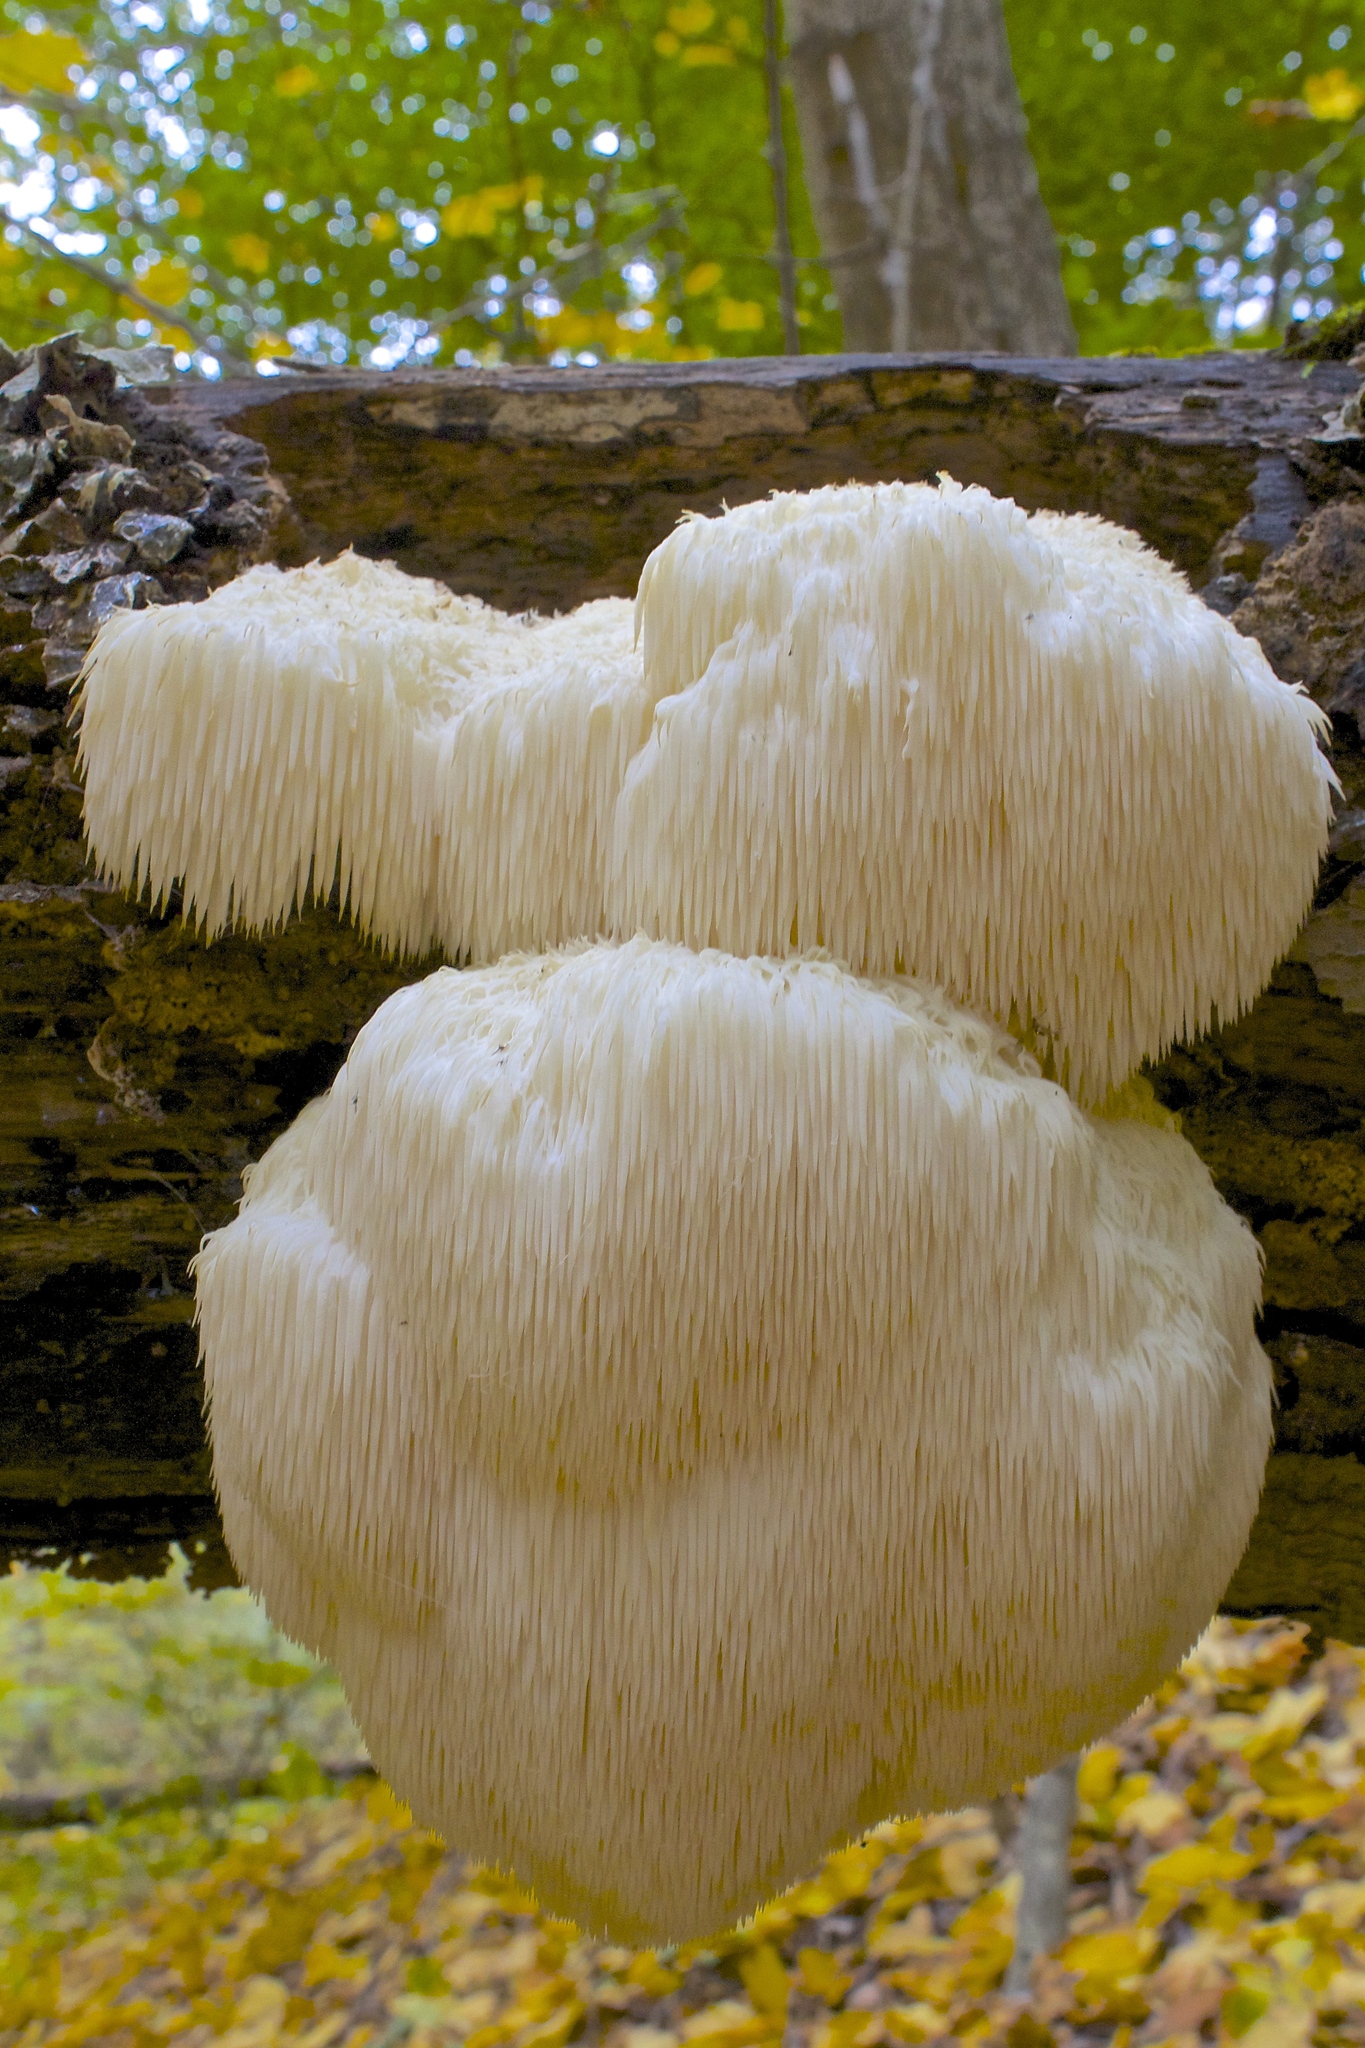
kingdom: Fungi
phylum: Basidiomycota
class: Agaricomycetes
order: Russulales
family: Hericiaceae
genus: Hericium
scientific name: Hericium erinaceus
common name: Bearded tooth
